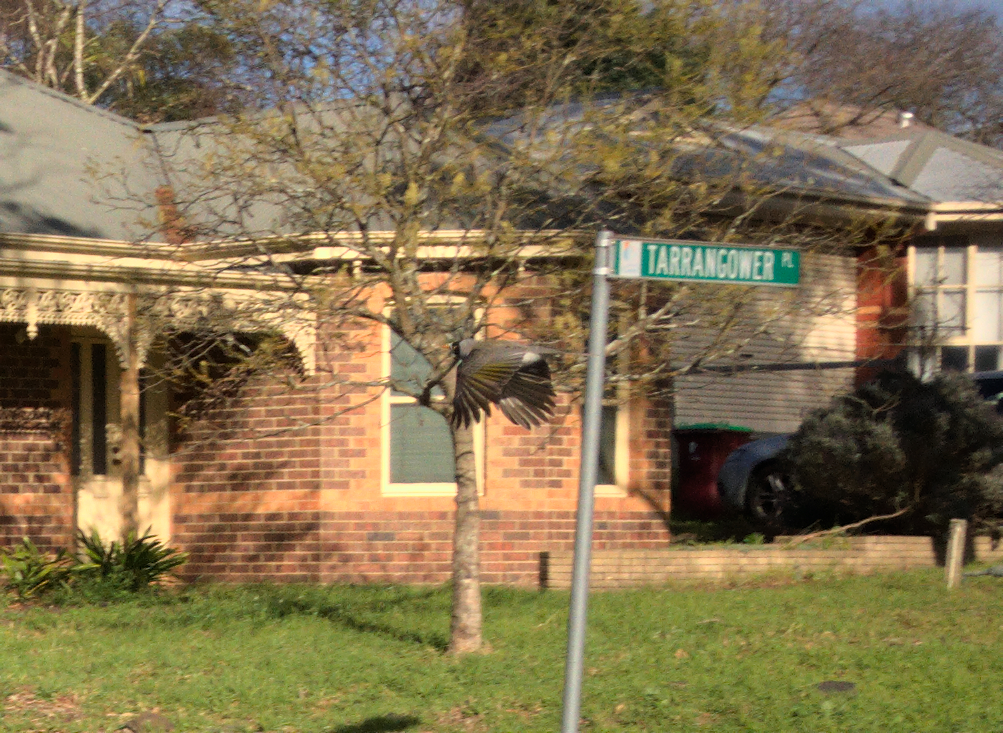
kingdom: Animalia
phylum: Chordata
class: Aves
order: Passeriformes
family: Meliphagidae
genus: Manorina
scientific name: Manorina melanocephala
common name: Noisy miner
